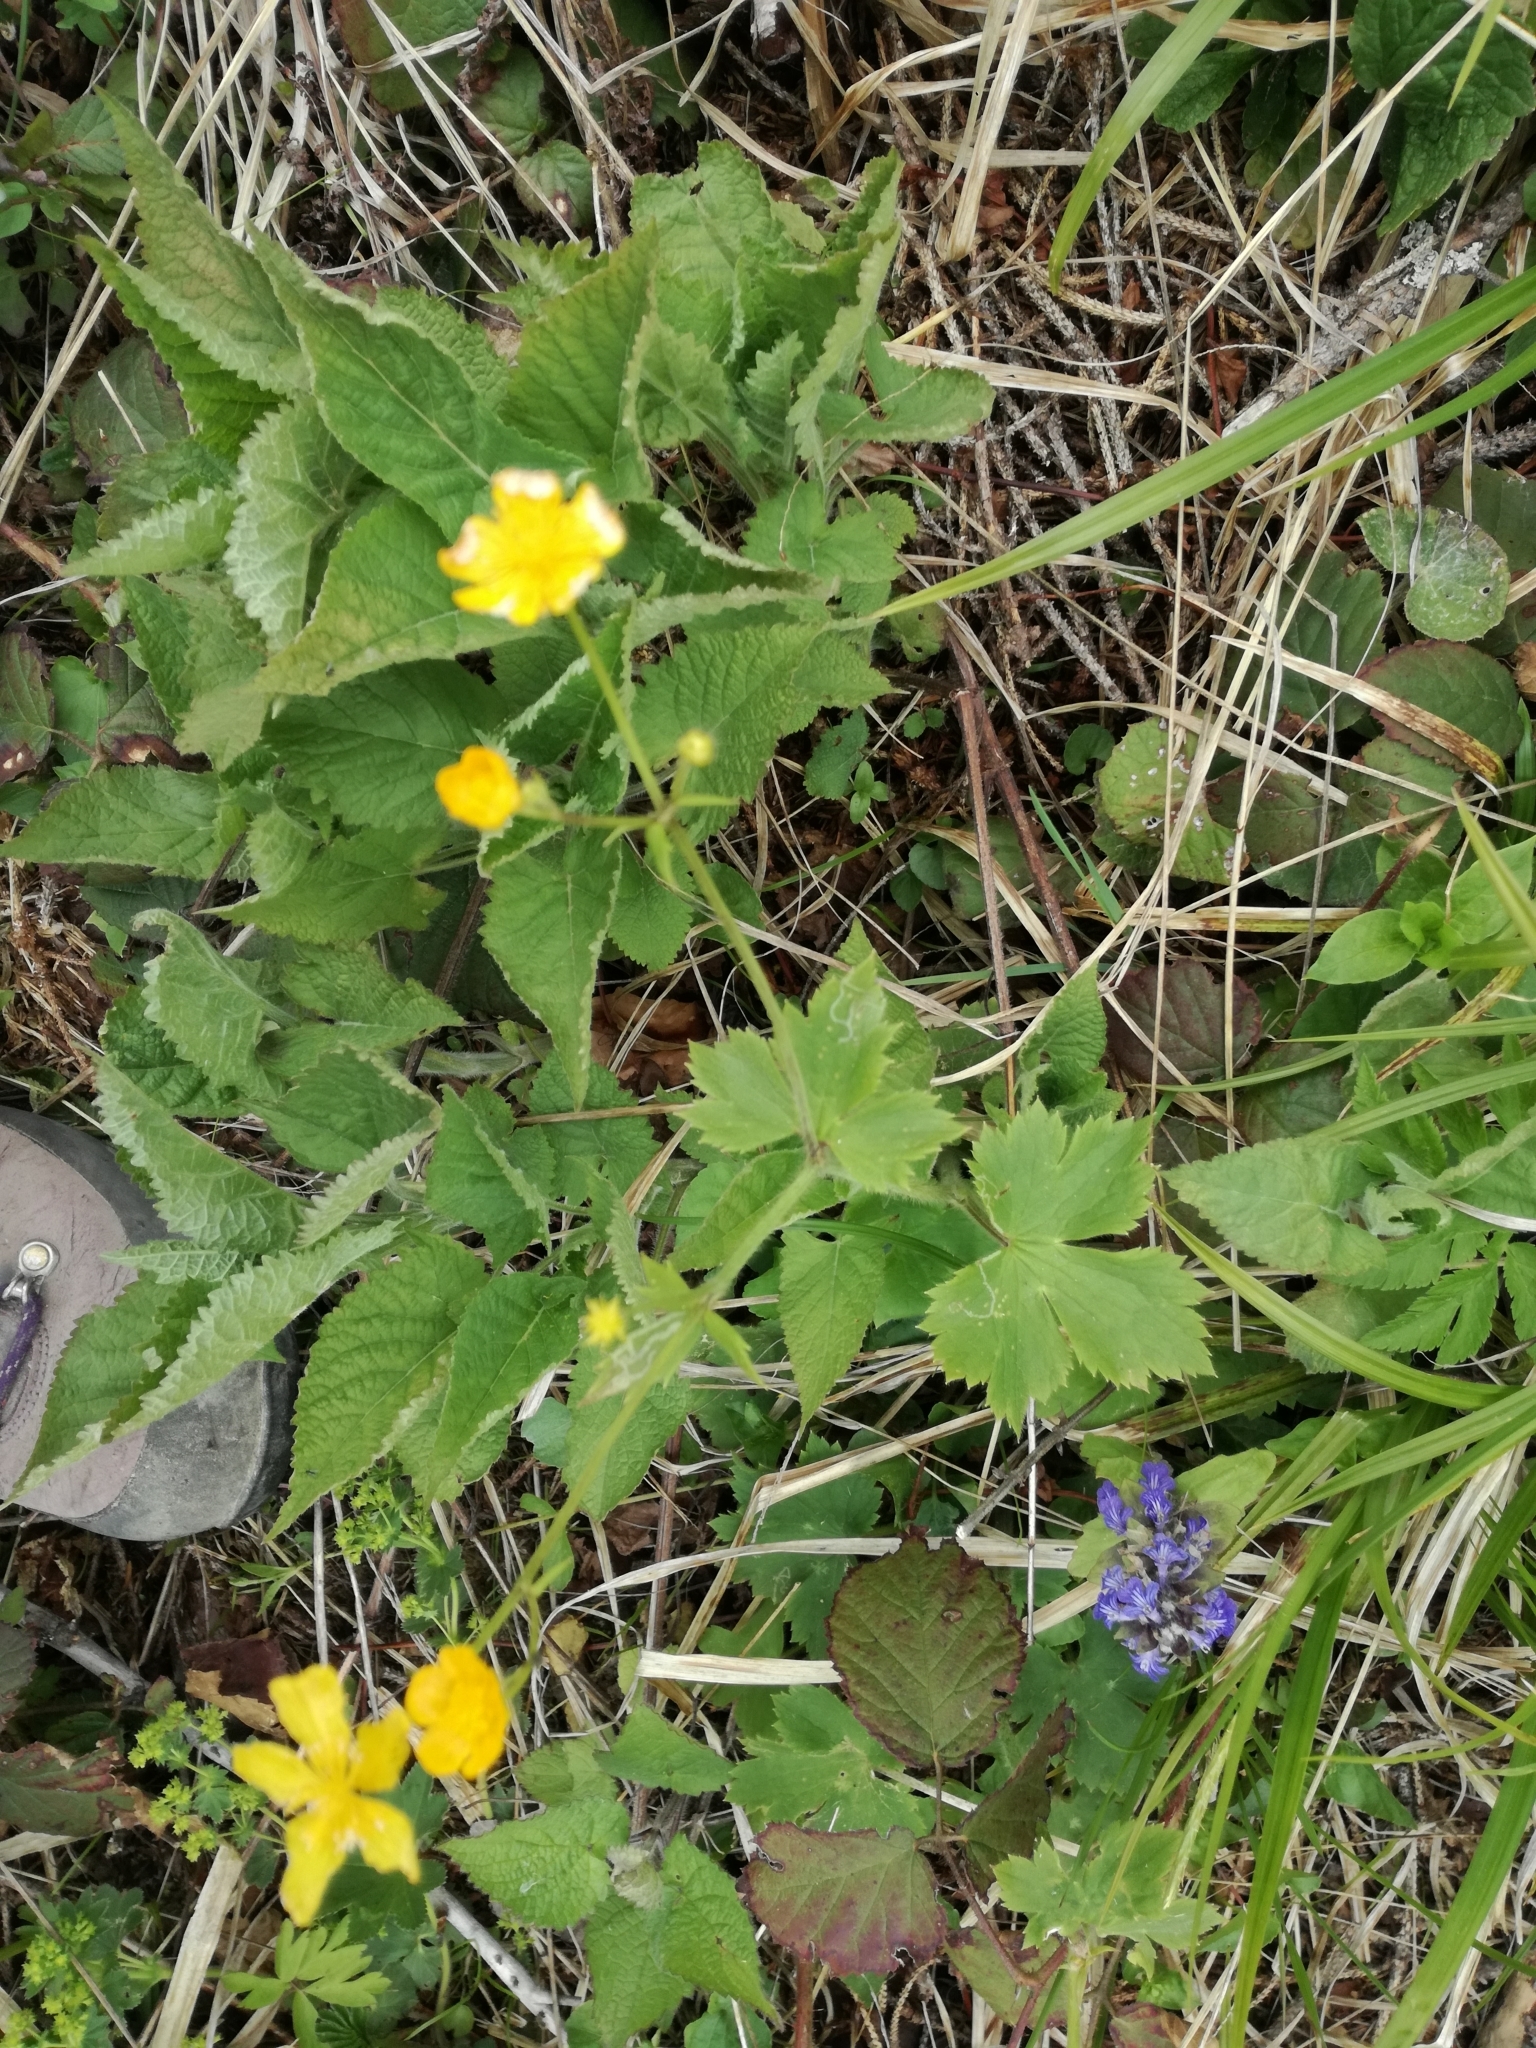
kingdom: Plantae
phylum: Tracheophyta
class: Magnoliopsida
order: Ranunculales
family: Ranunculaceae
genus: Ranunculus
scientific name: Ranunculus lanuginosus
